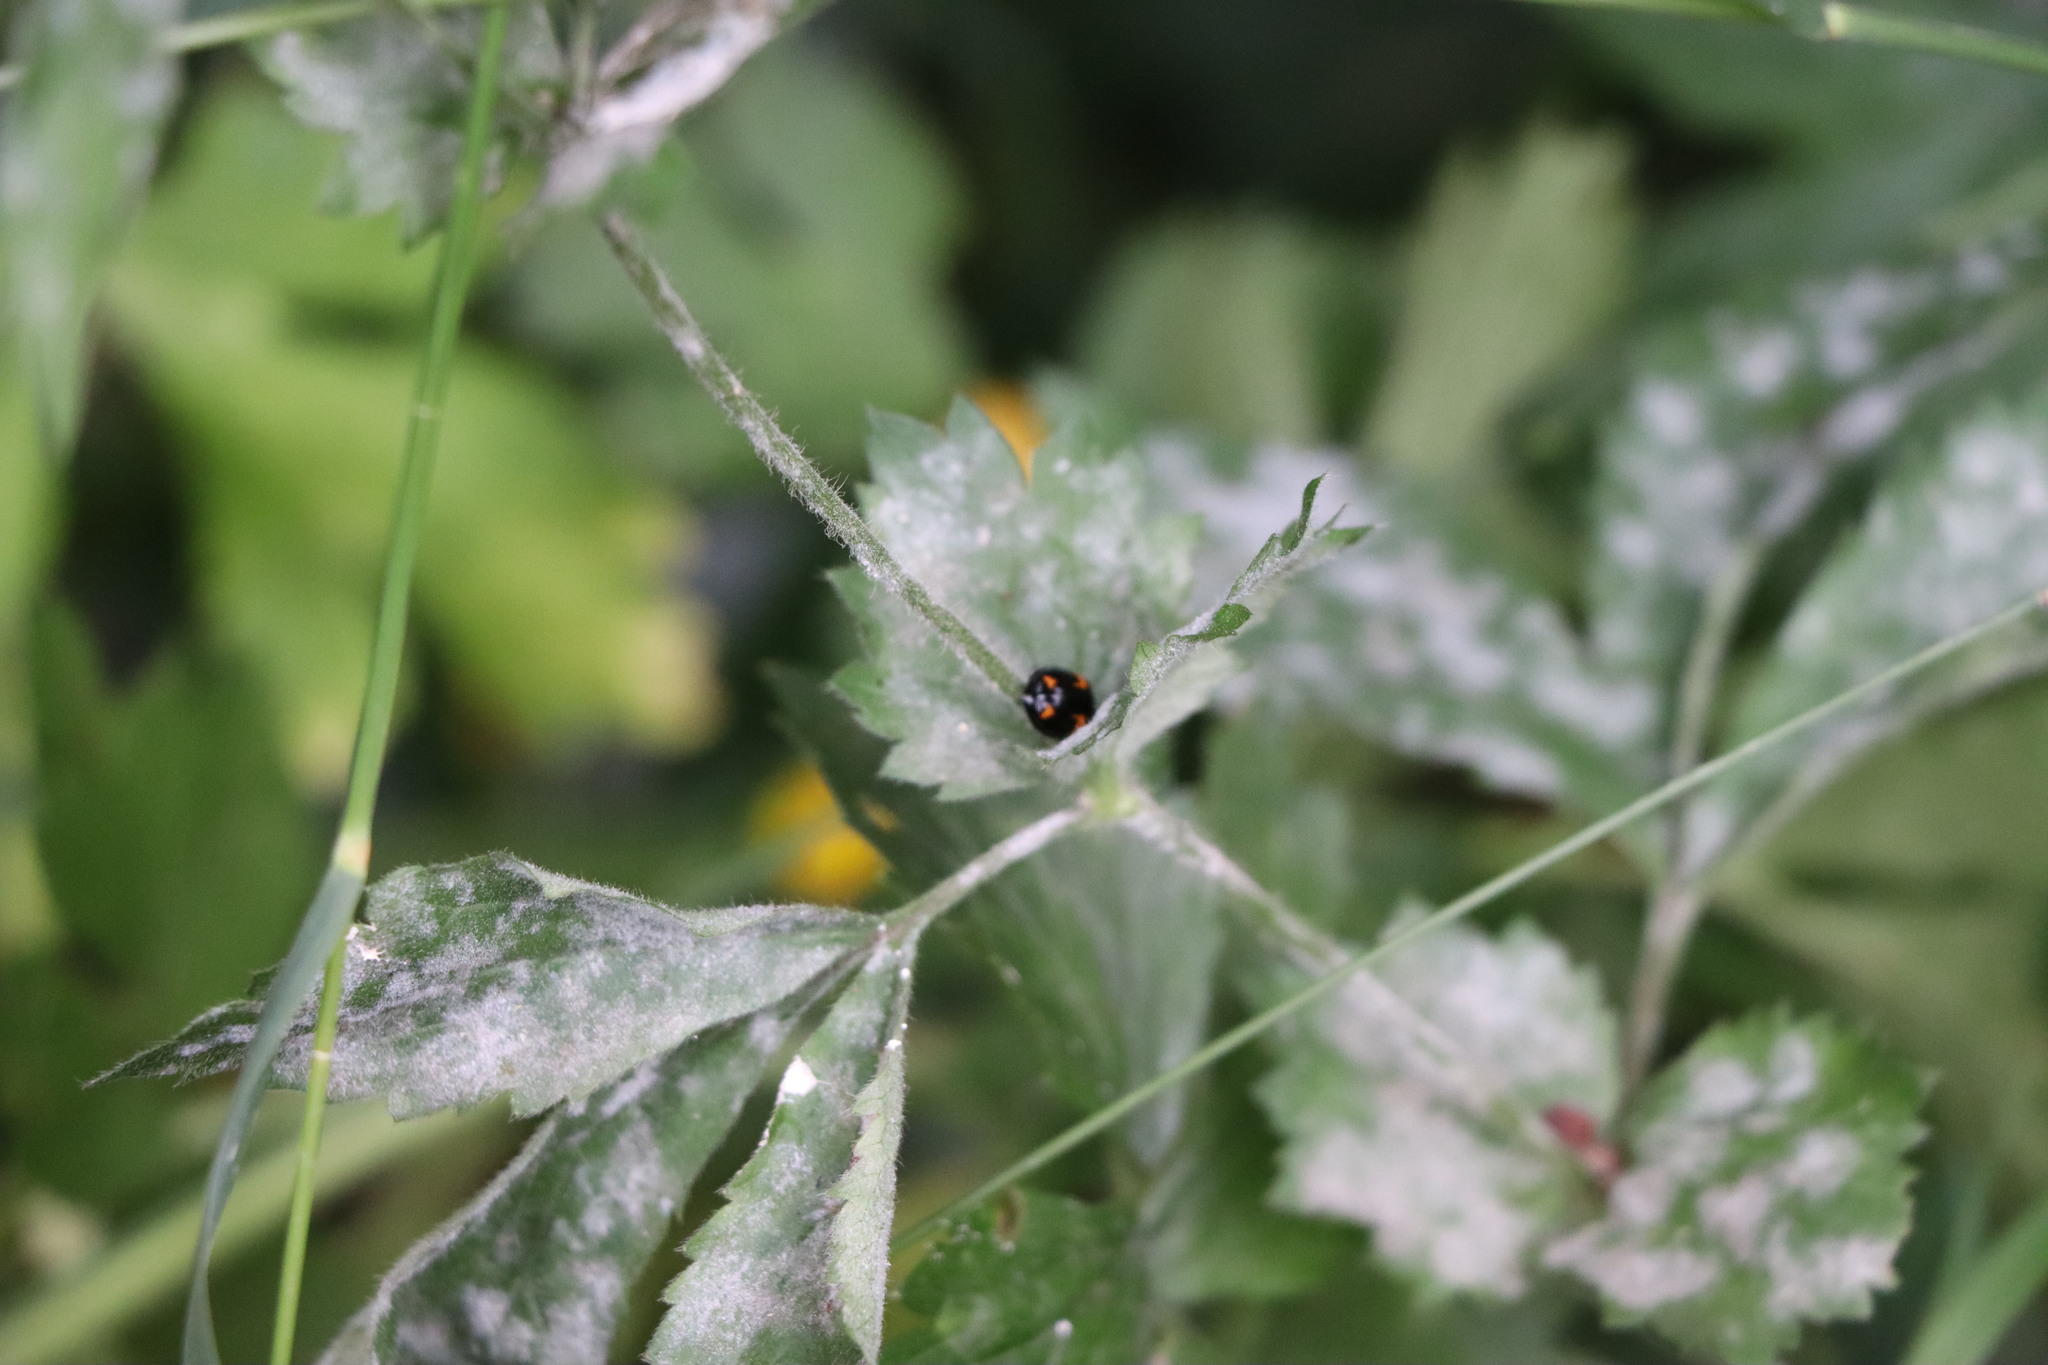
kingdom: Animalia
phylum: Arthropoda
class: Insecta
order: Coleoptera
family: Coccinellidae
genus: Harmonia
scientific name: Harmonia axyridis
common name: Harlequin ladybird
